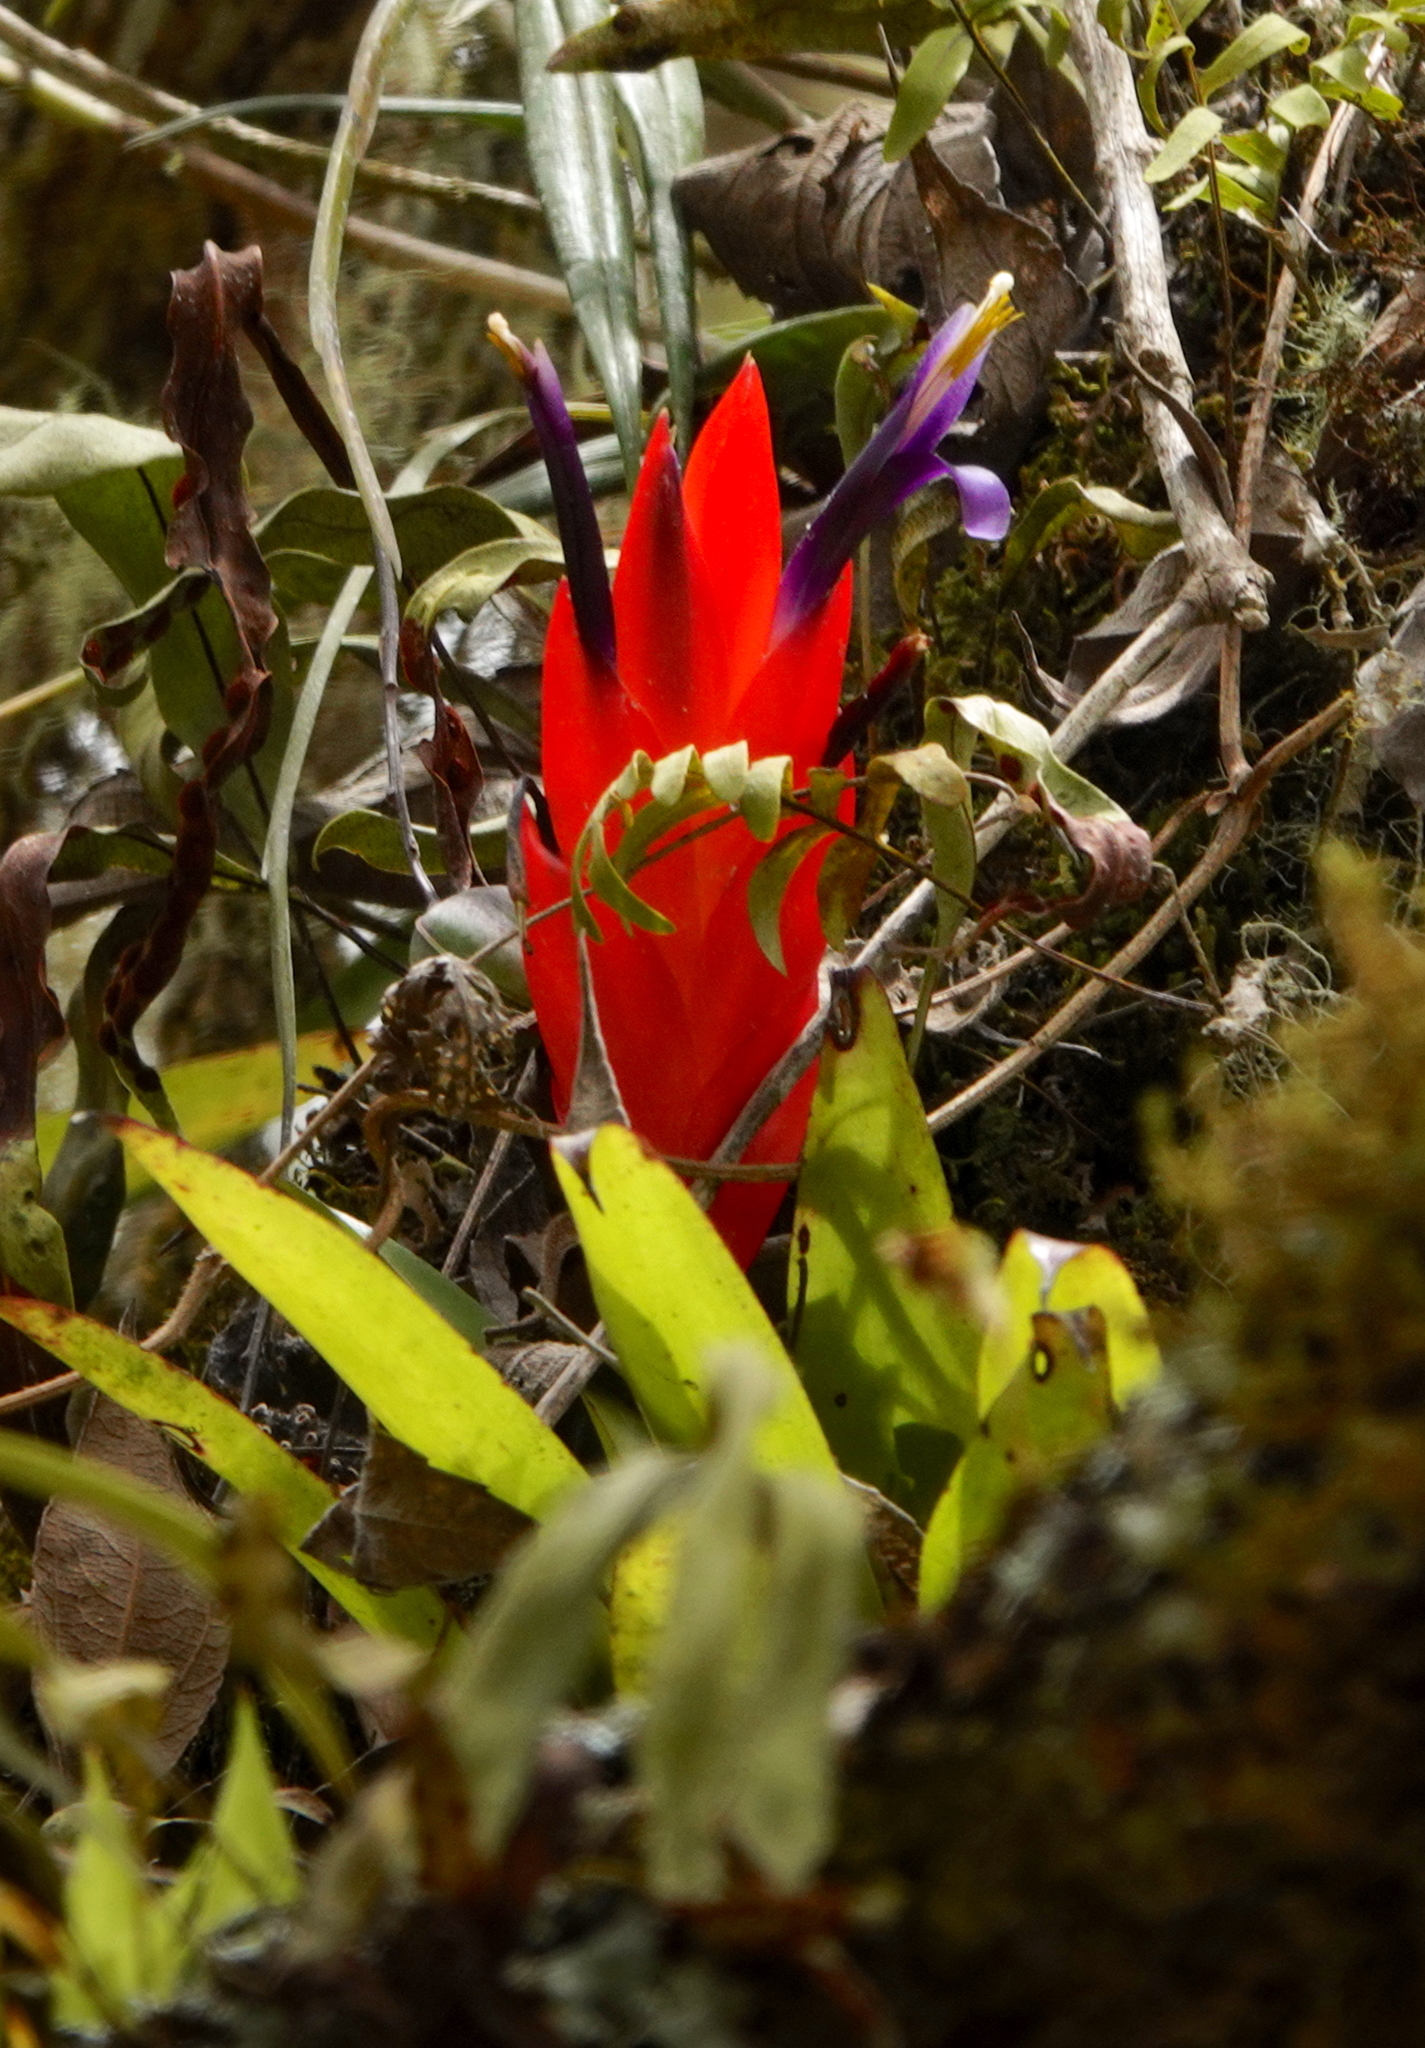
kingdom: Plantae
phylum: Tracheophyta
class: Liliopsida
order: Poales
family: Bromeliaceae
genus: Tillandsia
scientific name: Tillandsia multicaulis
